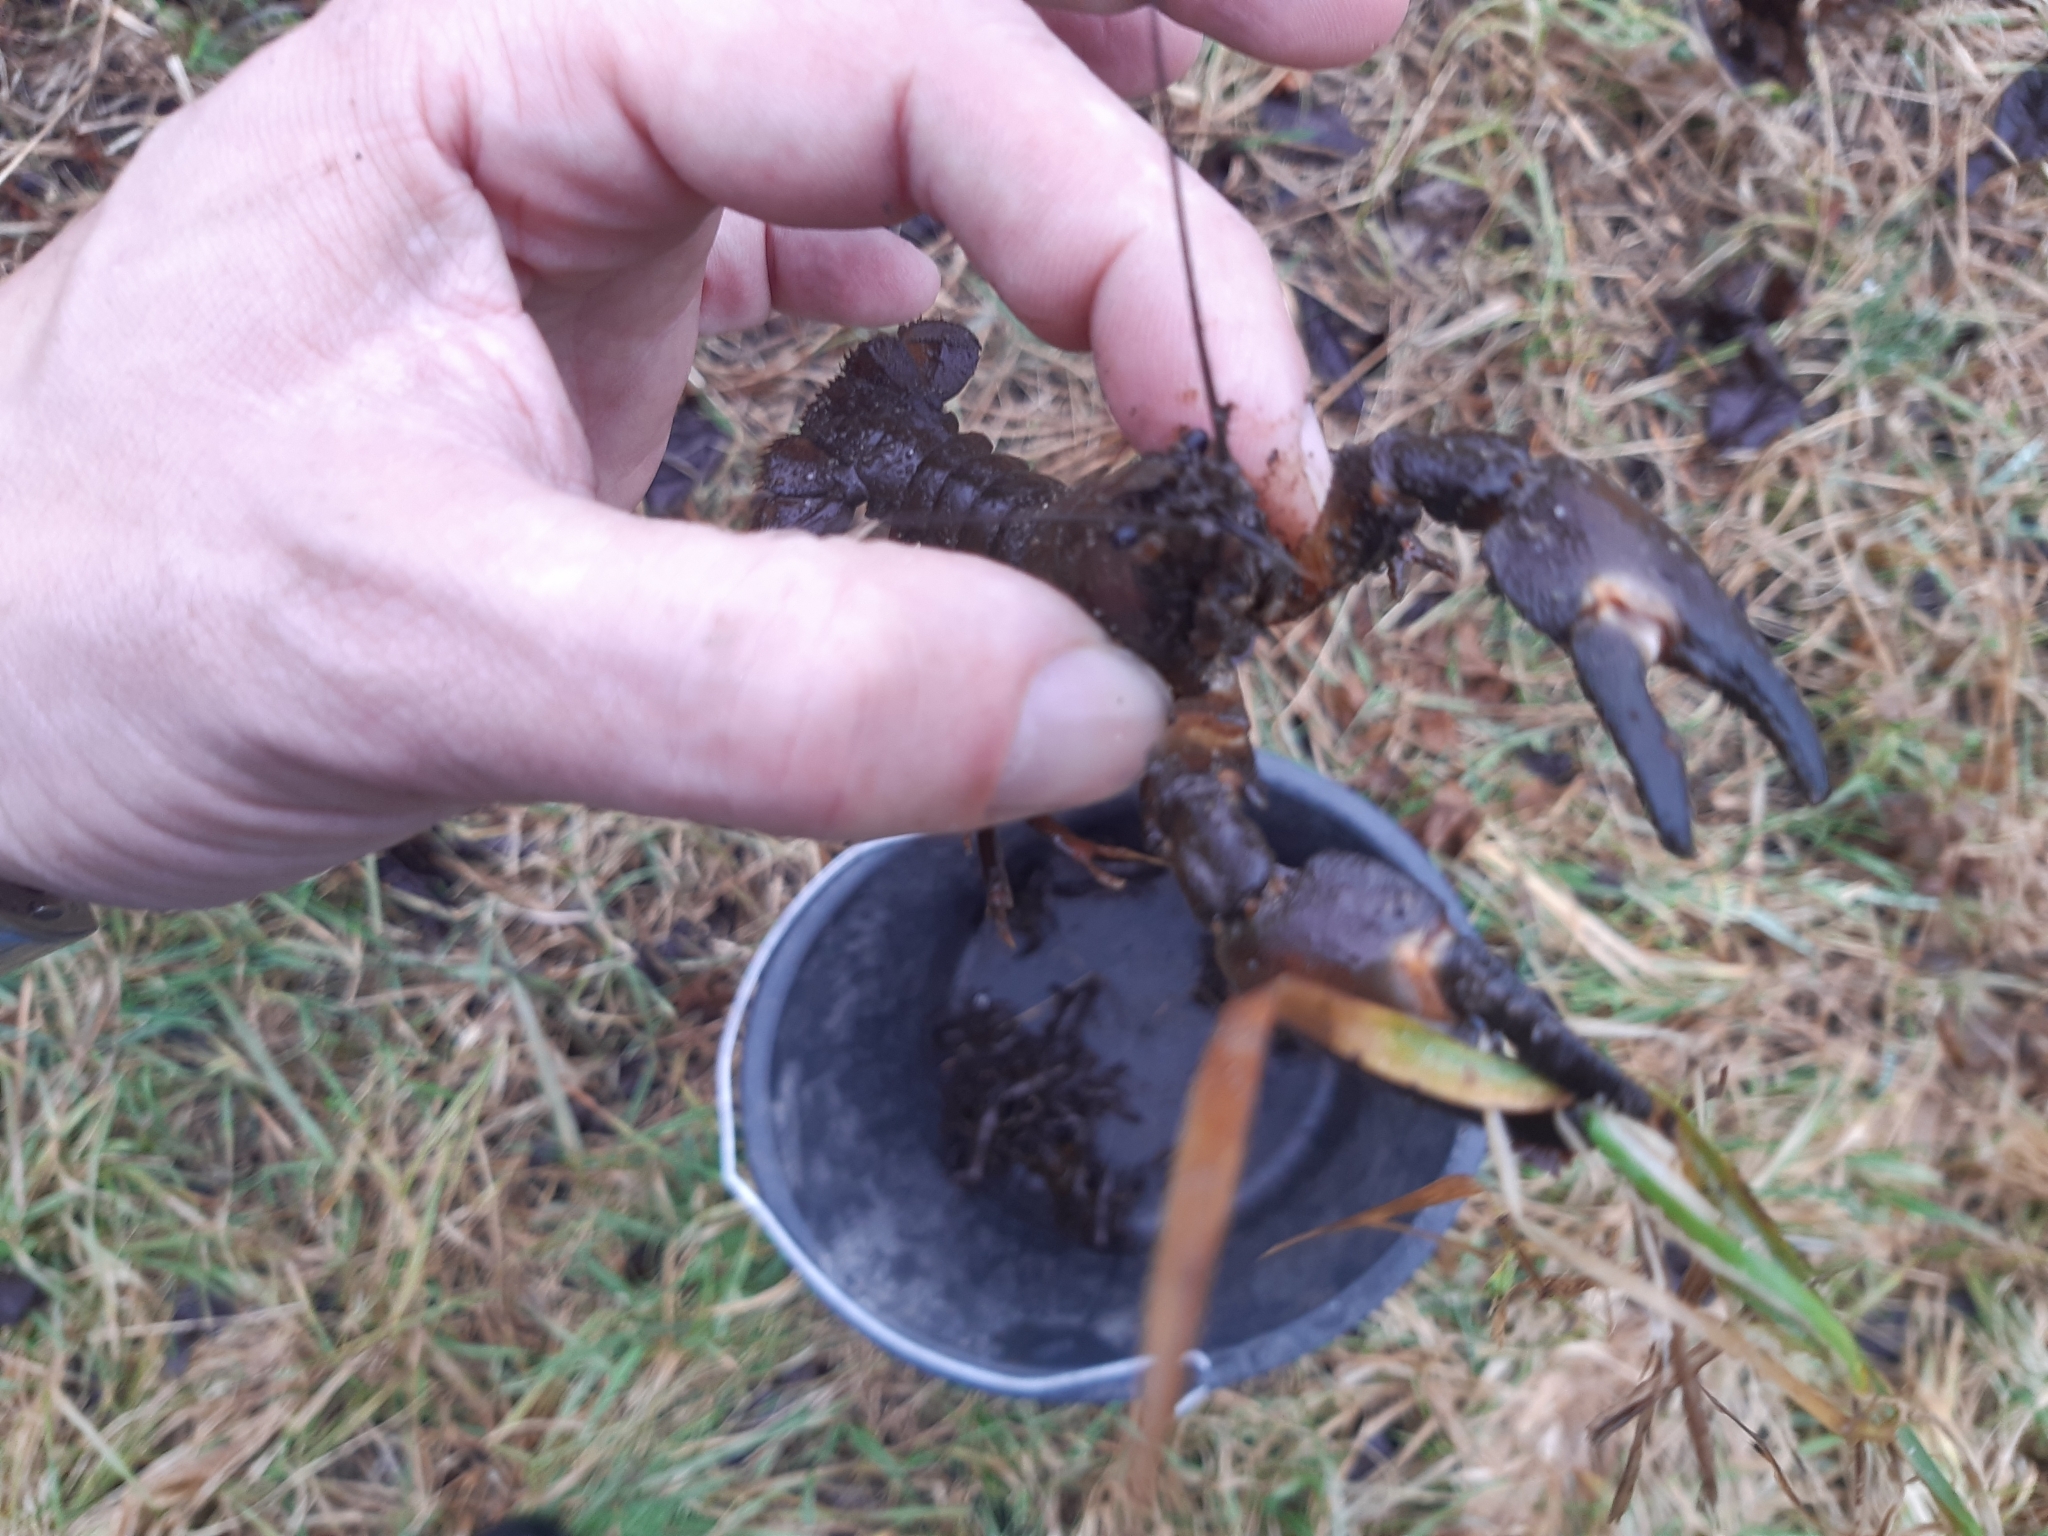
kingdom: Animalia
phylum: Arthropoda
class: Malacostraca
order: Decapoda
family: Astacidae
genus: Pacifastacus
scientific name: Pacifastacus leniusculus
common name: Signal crayfish
